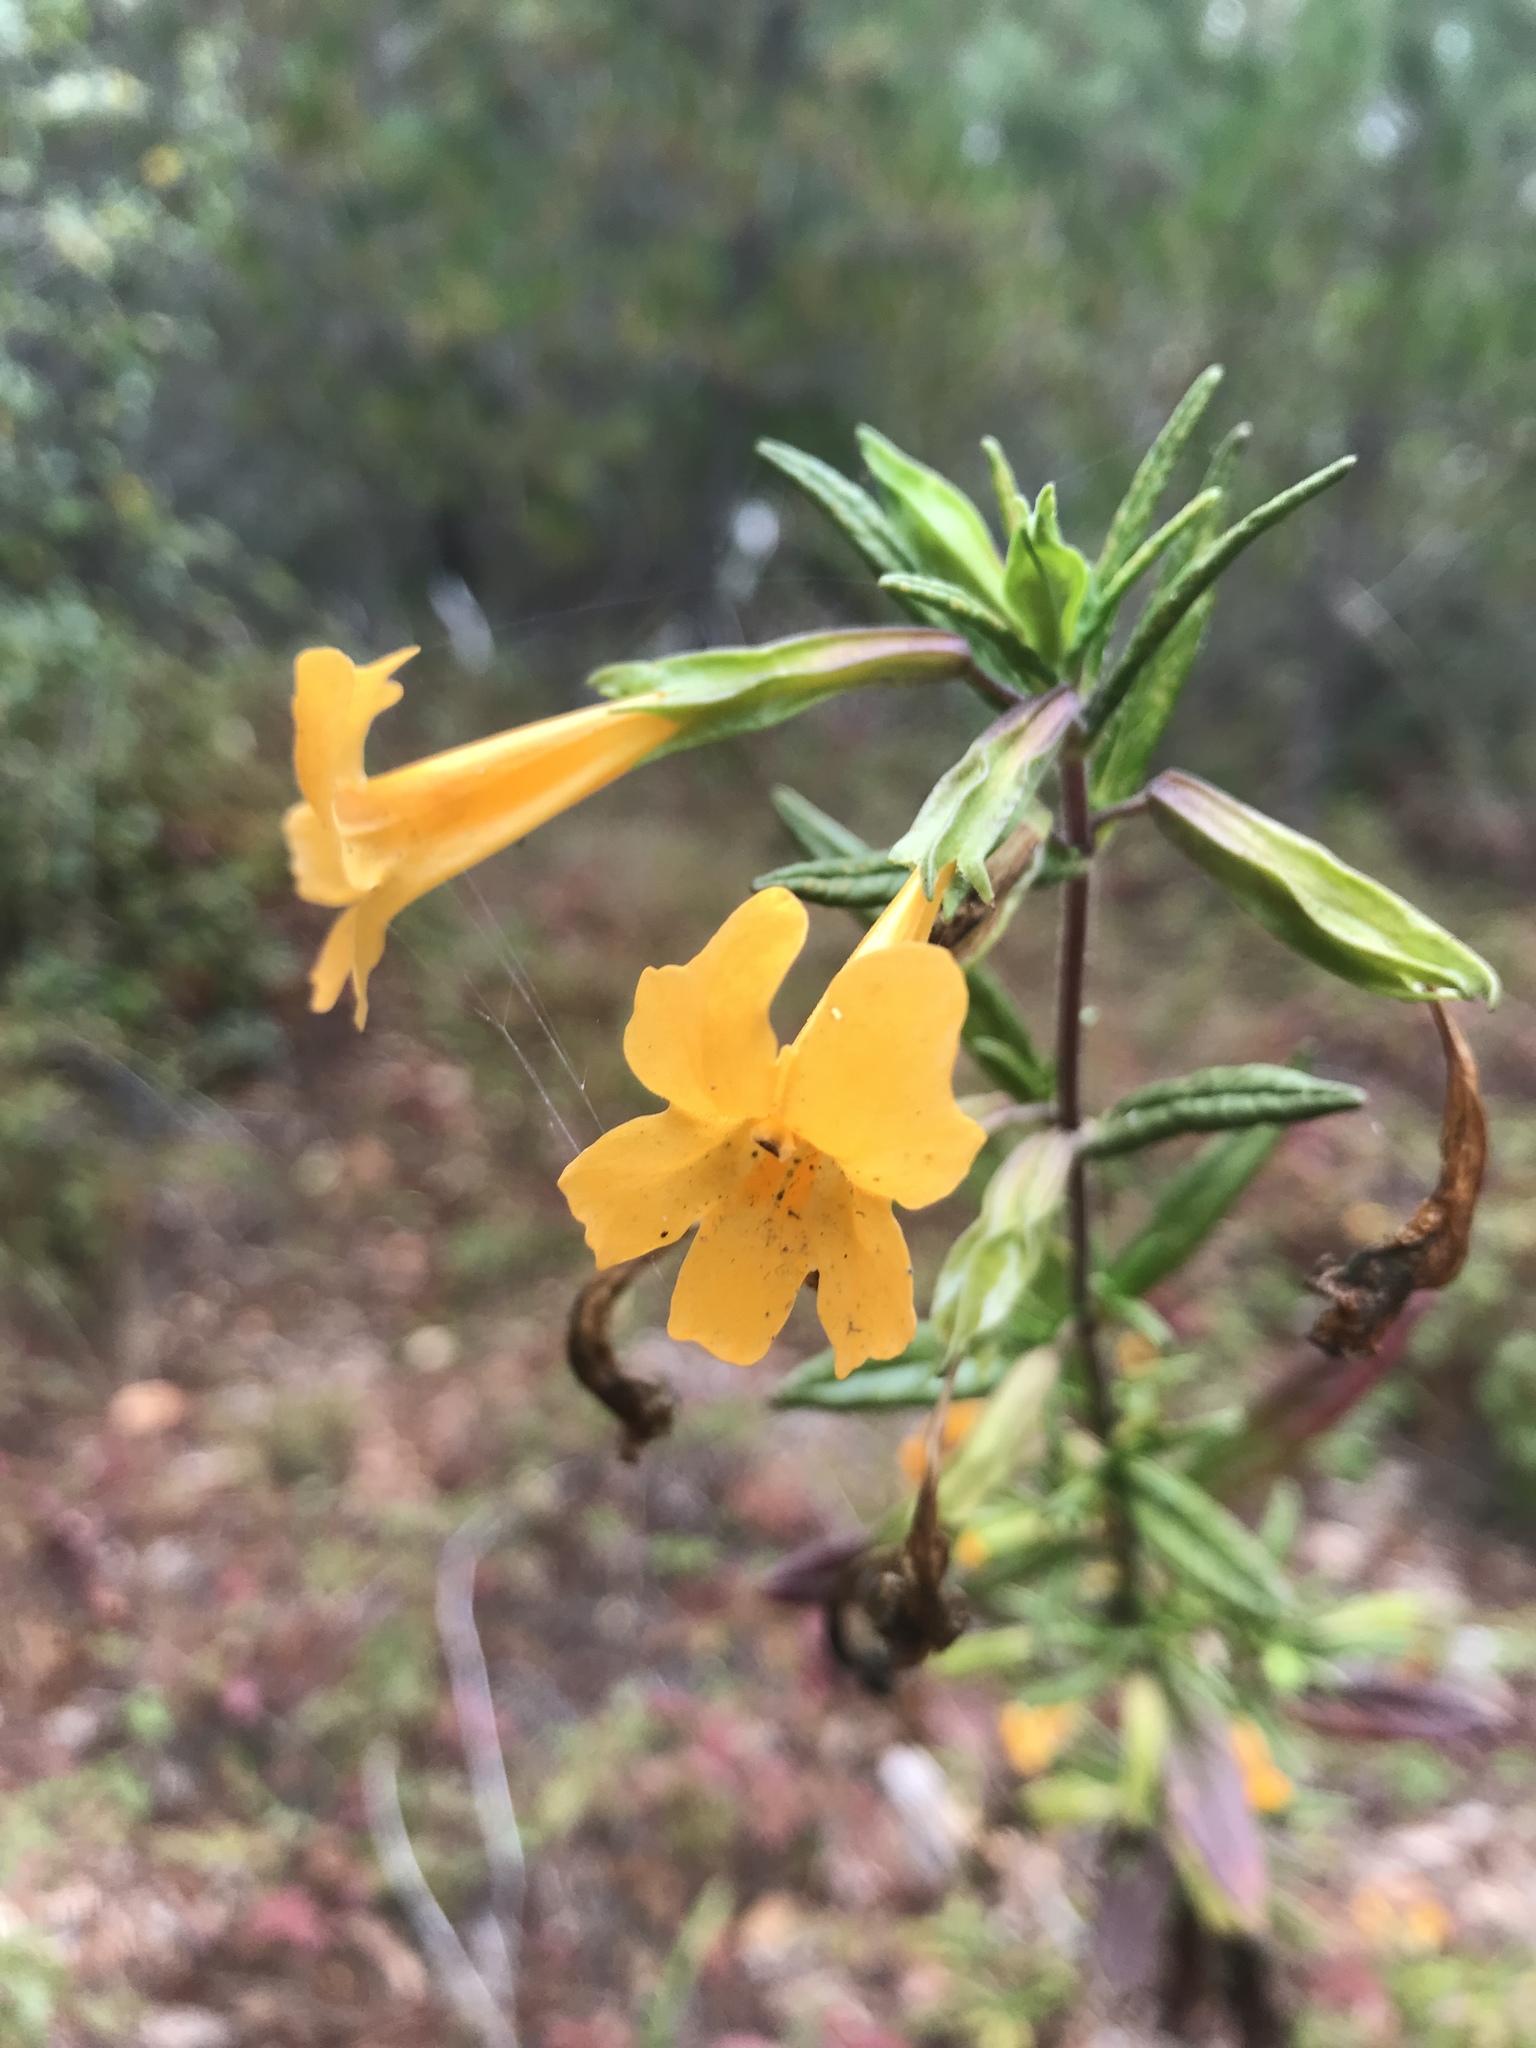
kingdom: Plantae
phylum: Tracheophyta
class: Magnoliopsida
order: Lamiales
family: Phrymaceae
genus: Diplacus
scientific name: Diplacus aurantiacus
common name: Bush monkey-flower
